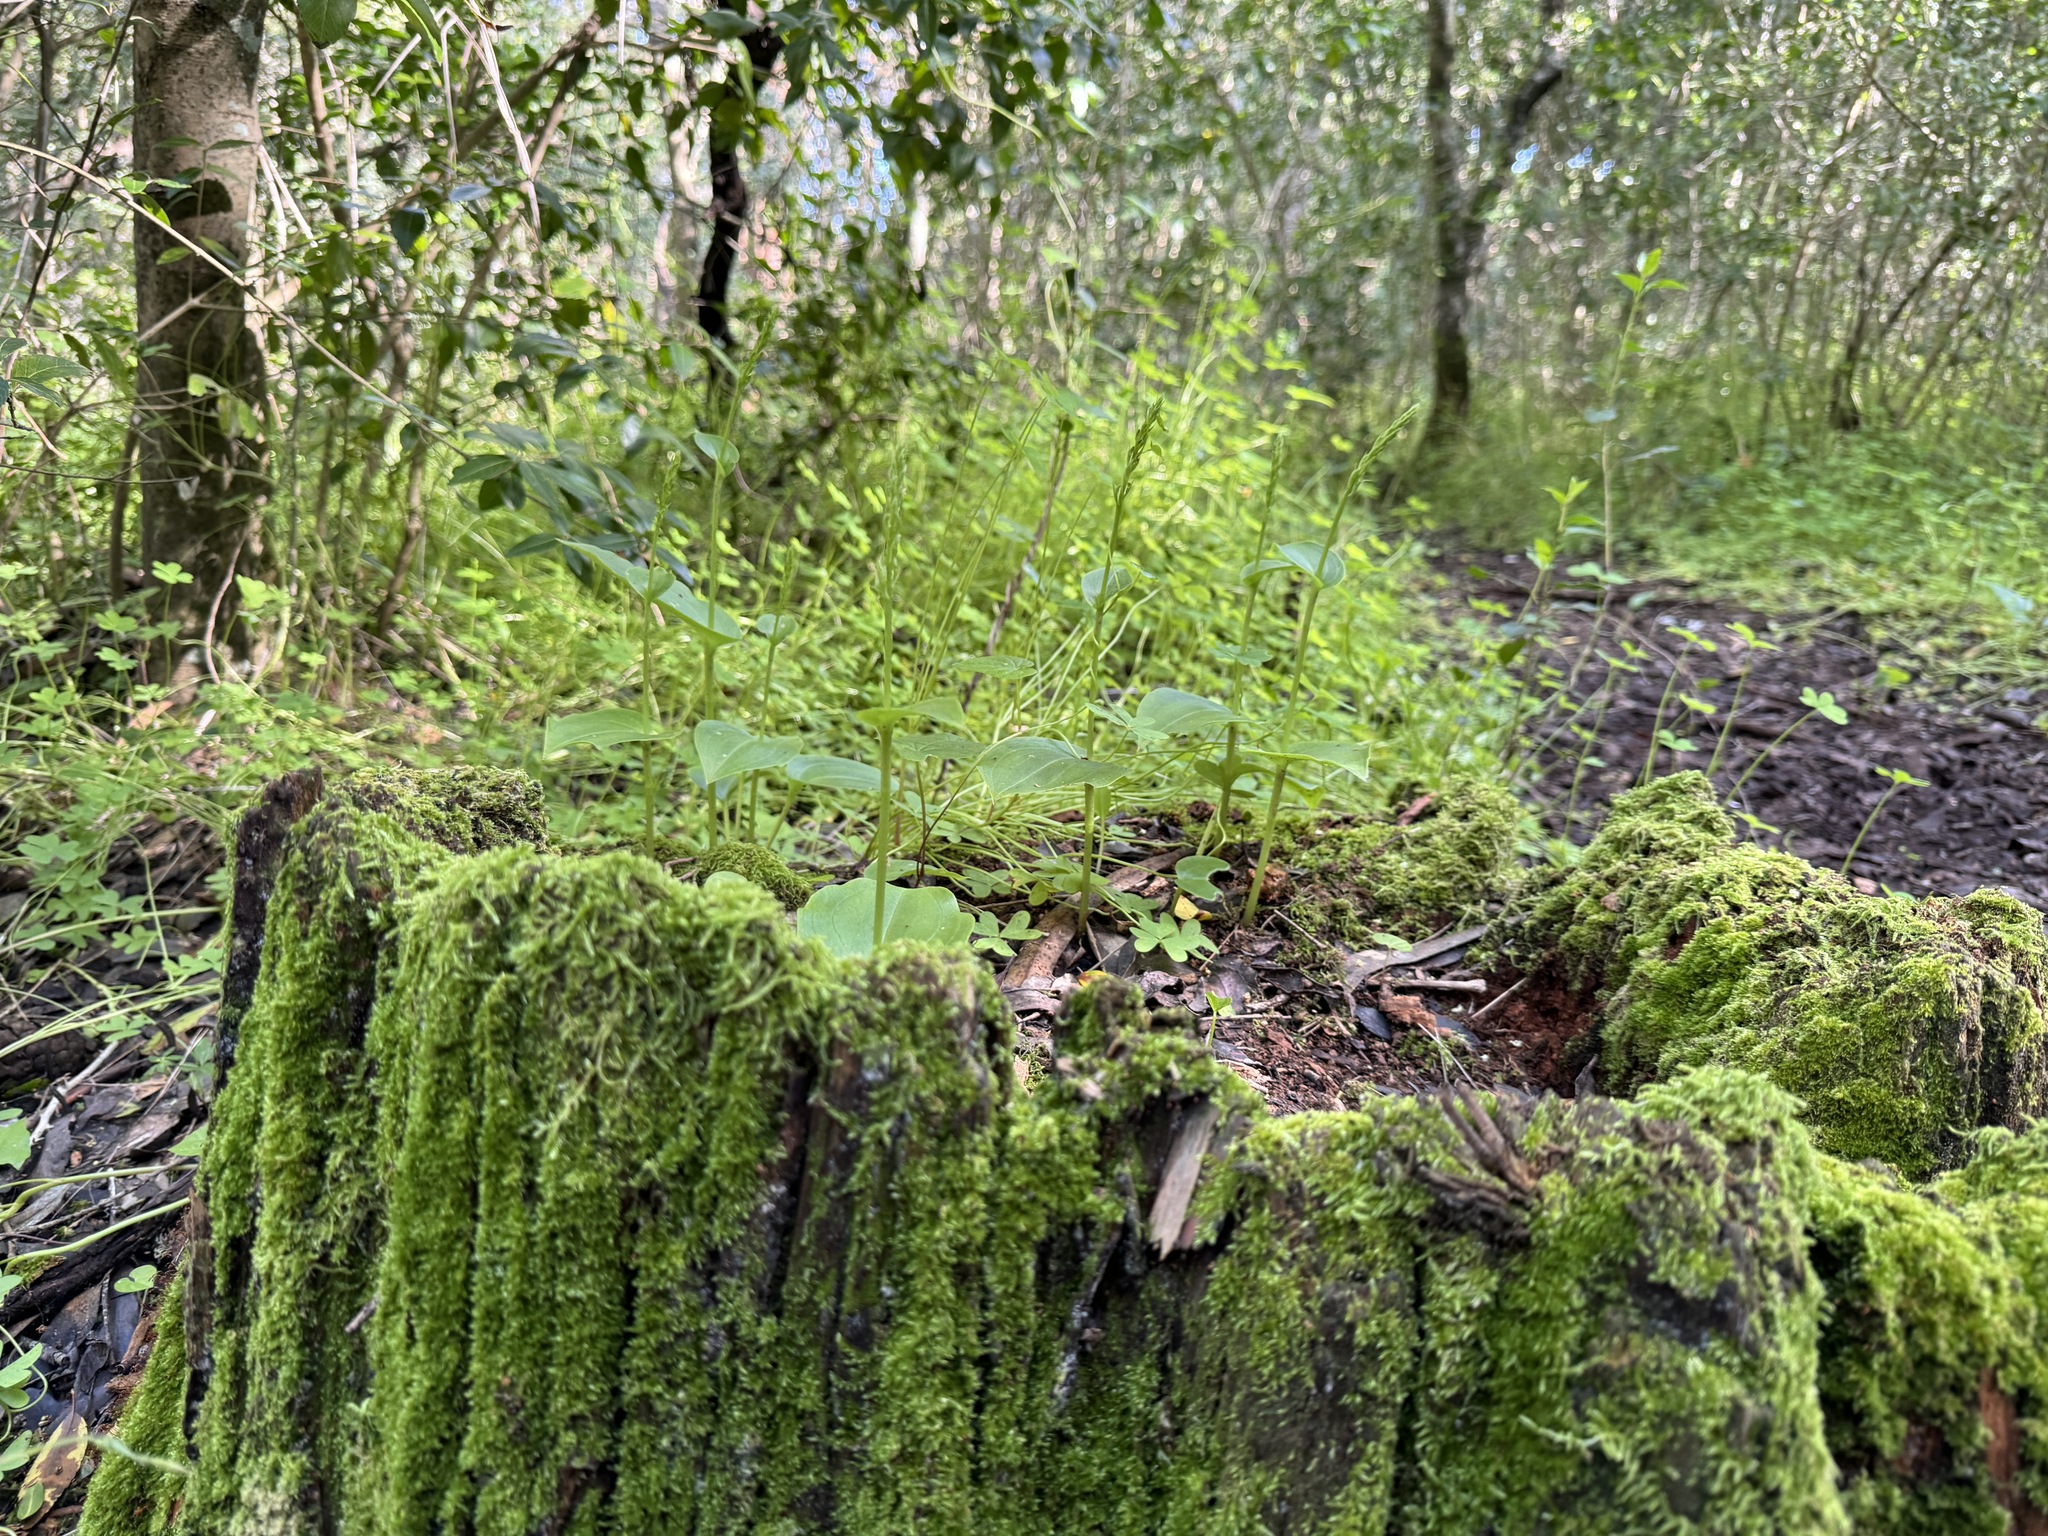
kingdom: Plantae
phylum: Tracheophyta
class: Liliopsida
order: Asparagales
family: Orchidaceae
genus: Gennaria
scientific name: Gennaria diphylla
